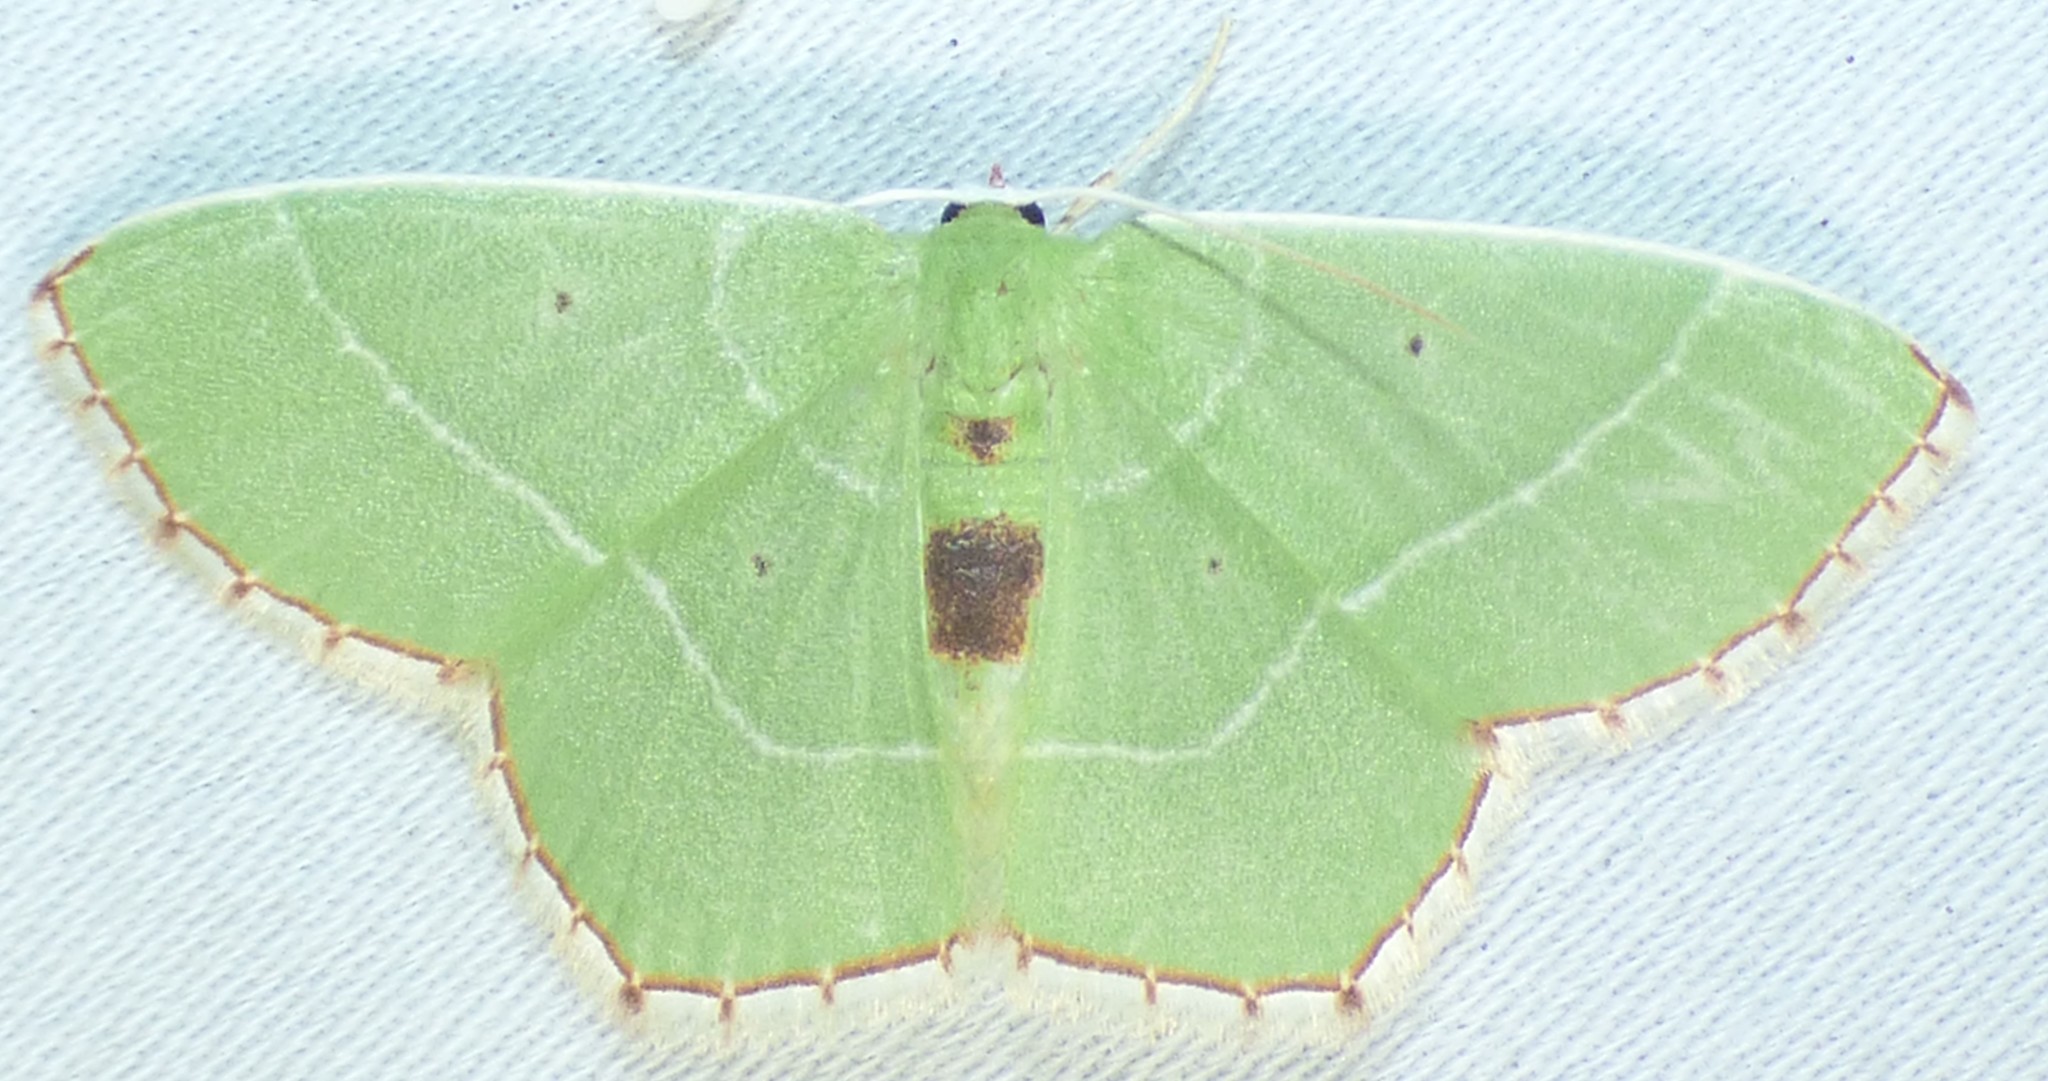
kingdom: Animalia
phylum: Arthropoda
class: Insecta
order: Lepidoptera
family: Geometridae
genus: Nemoria
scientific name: Nemoria saturiba
